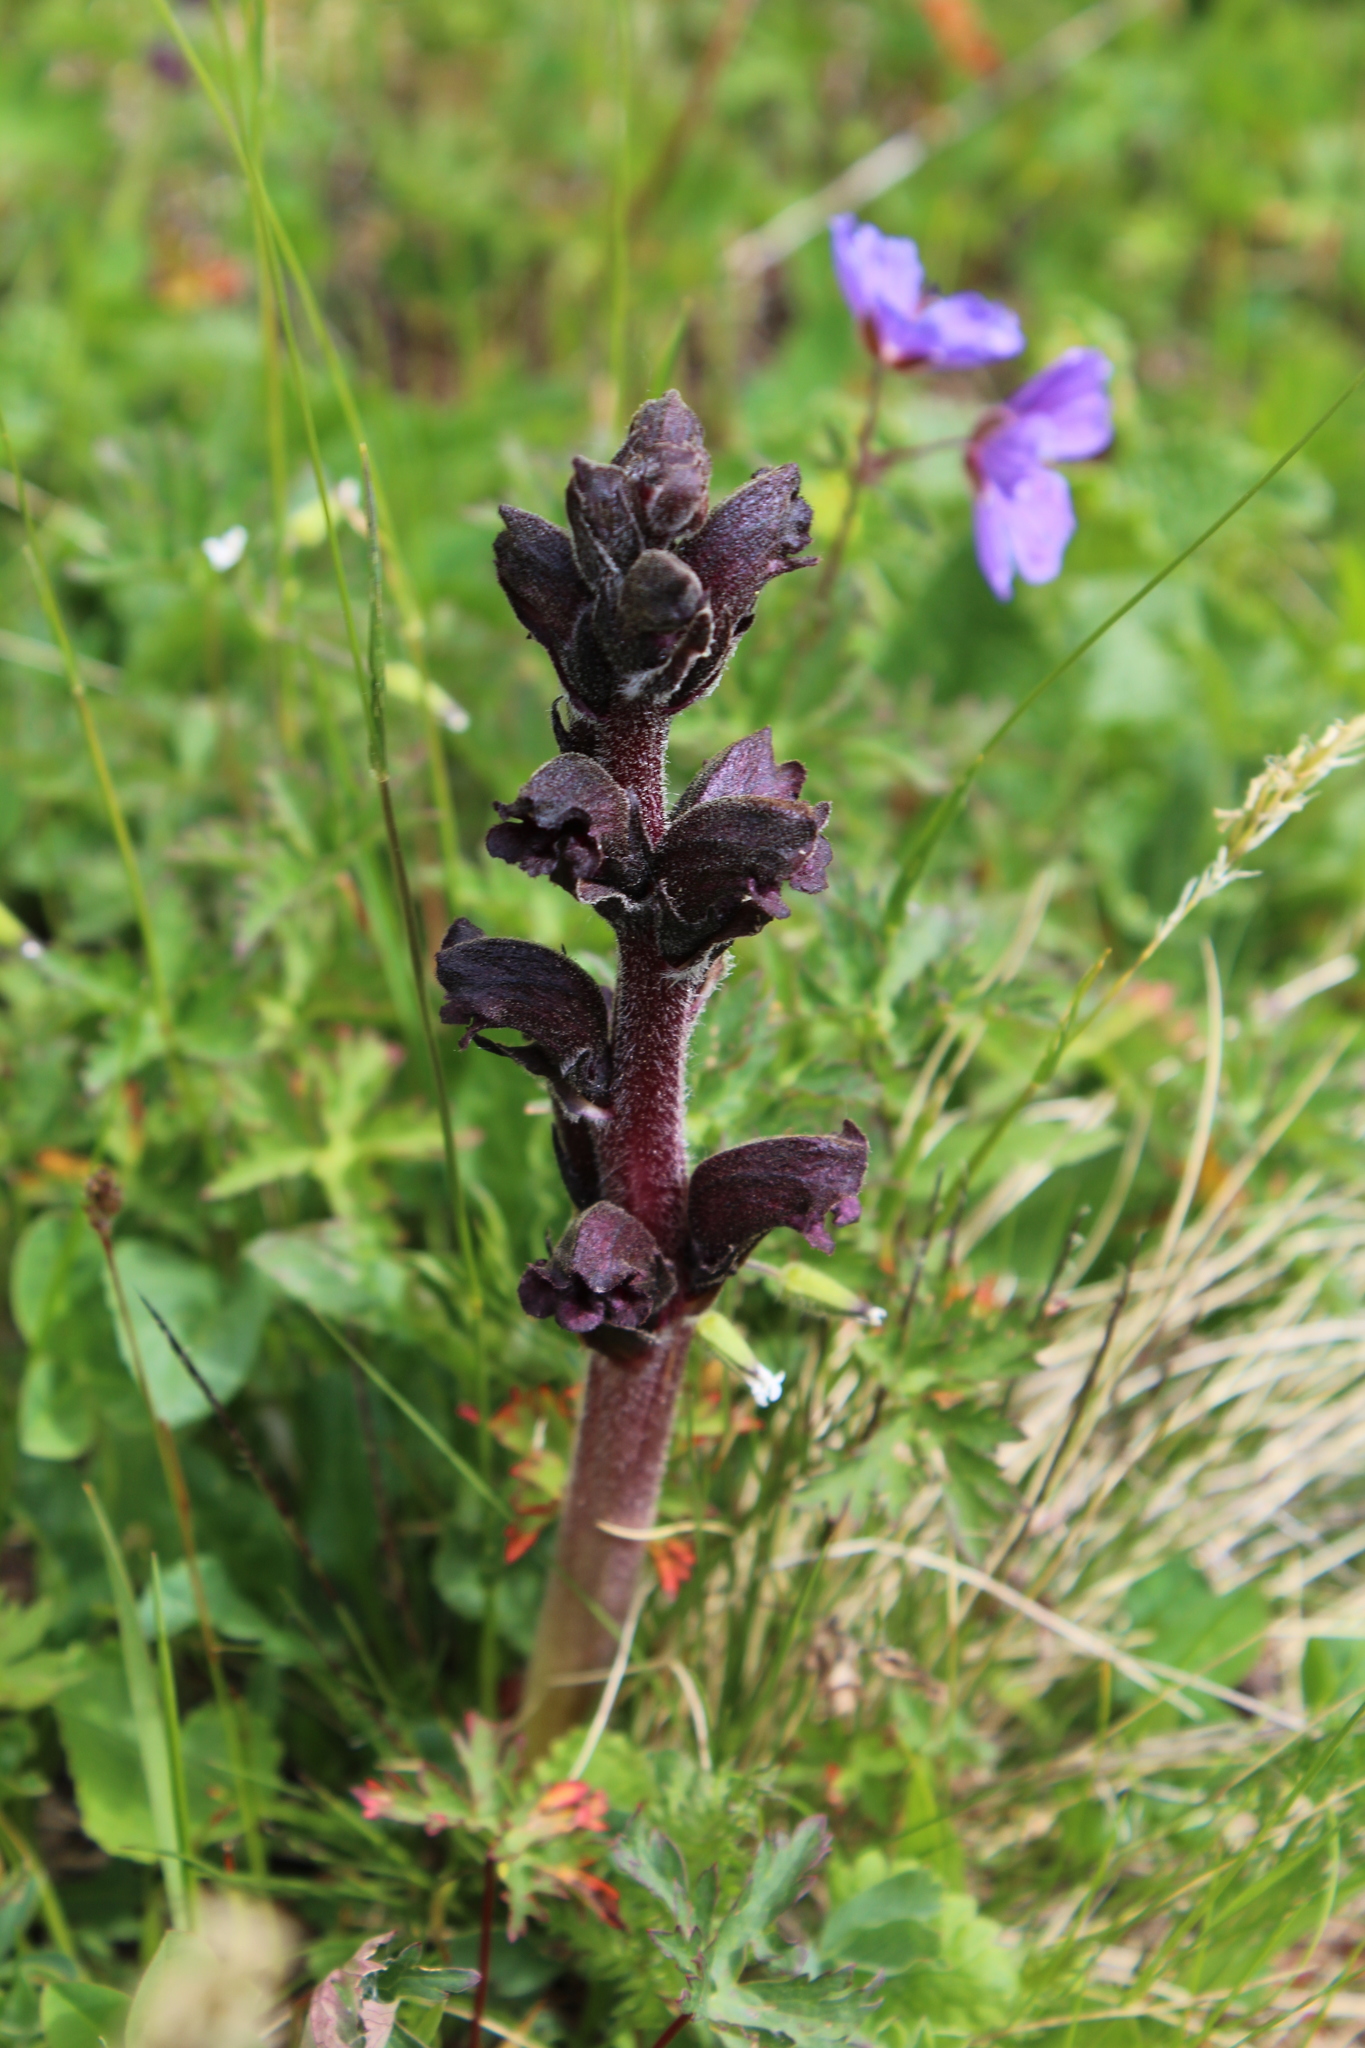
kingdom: Plantae
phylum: Tracheophyta
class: Magnoliopsida
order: Lamiales
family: Orobanchaceae
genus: Orobanche
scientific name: Orobanche gamosepala
